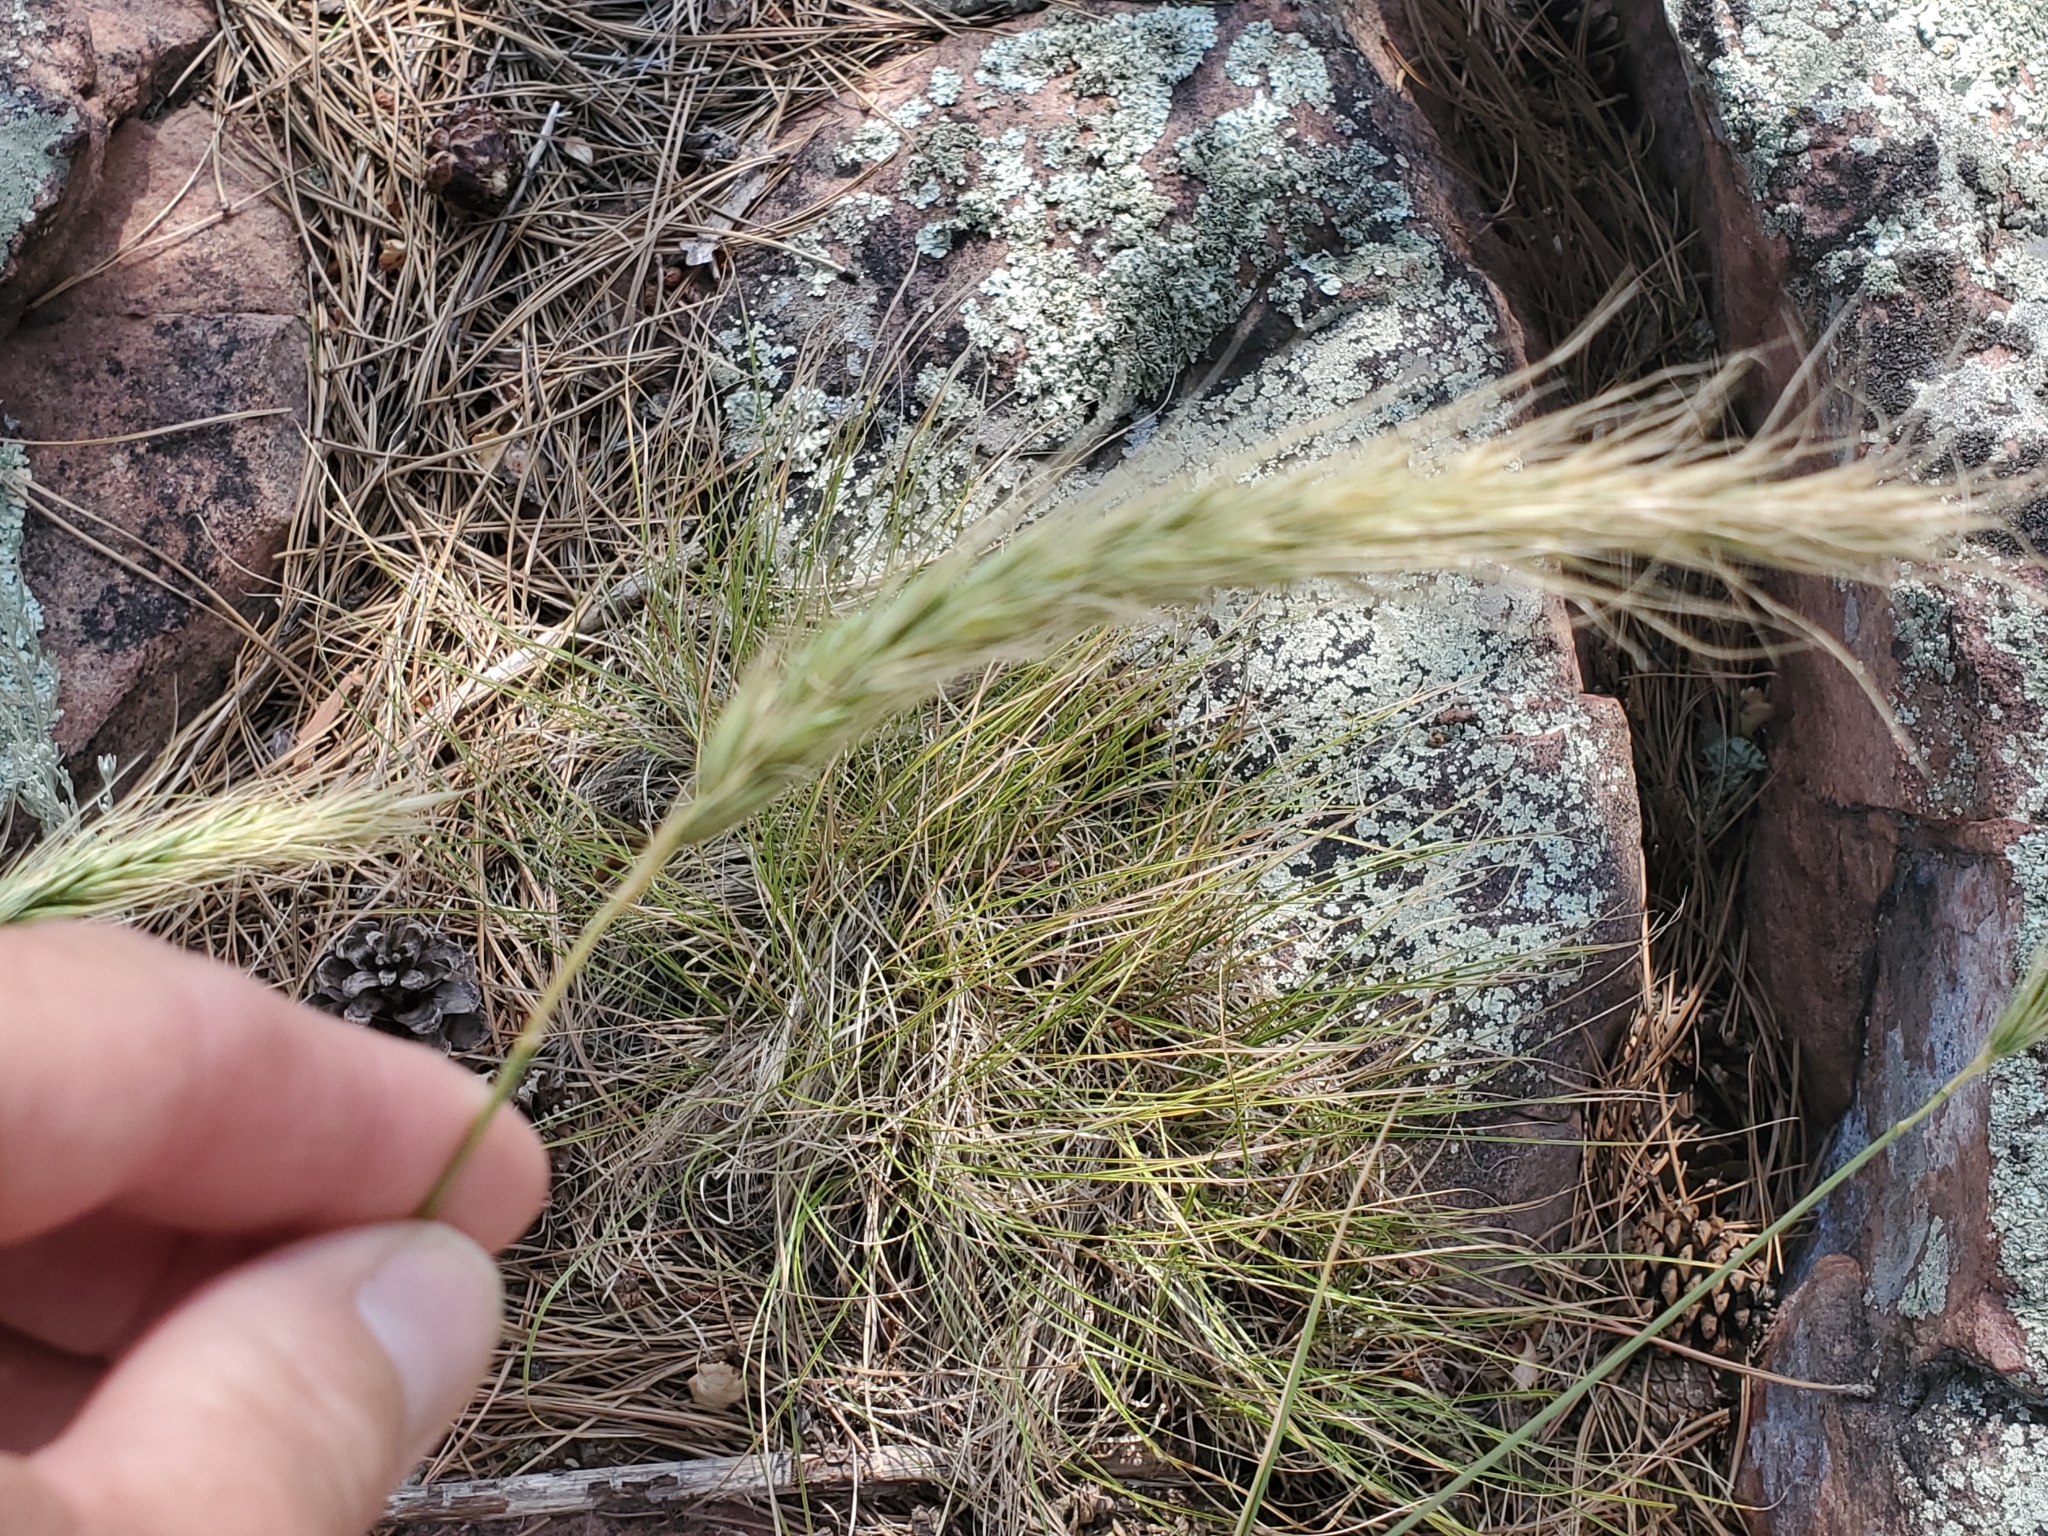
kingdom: Plantae
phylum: Tracheophyta
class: Liliopsida
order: Poales
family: Poaceae
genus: Elymus
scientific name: Elymus canadensis
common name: Canada wild rye
